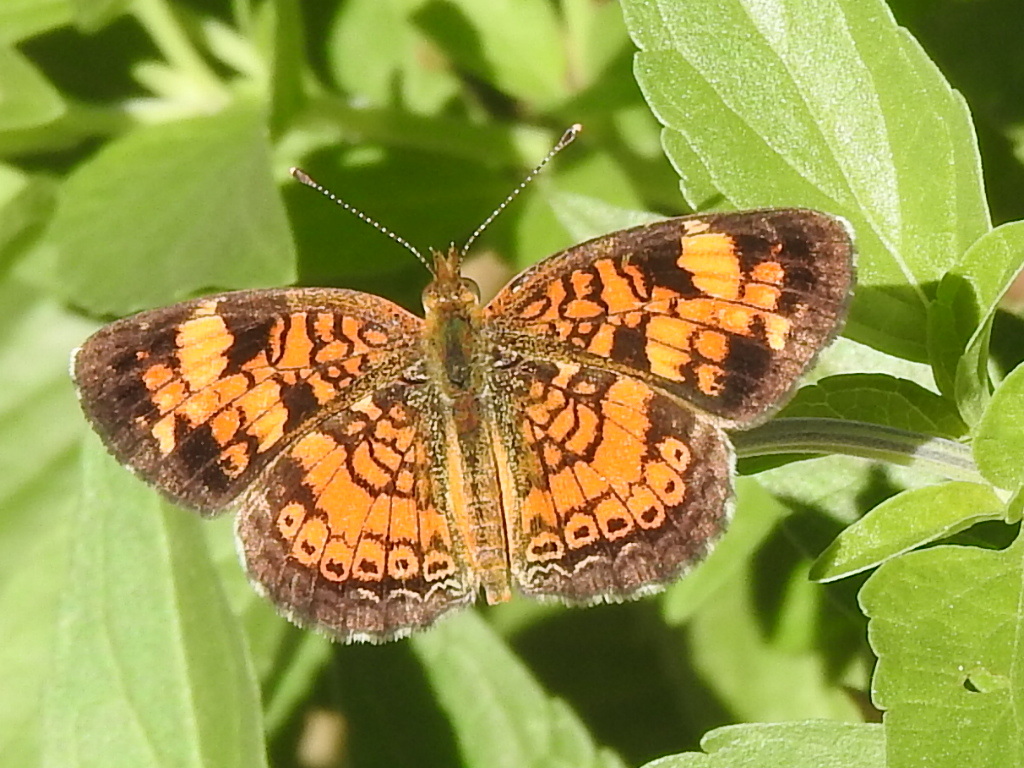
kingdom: Animalia
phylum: Arthropoda
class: Insecta
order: Lepidoptera
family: Nymphalidae
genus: Phyciodes
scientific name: Phyciodes tharos
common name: Pearl crescent
